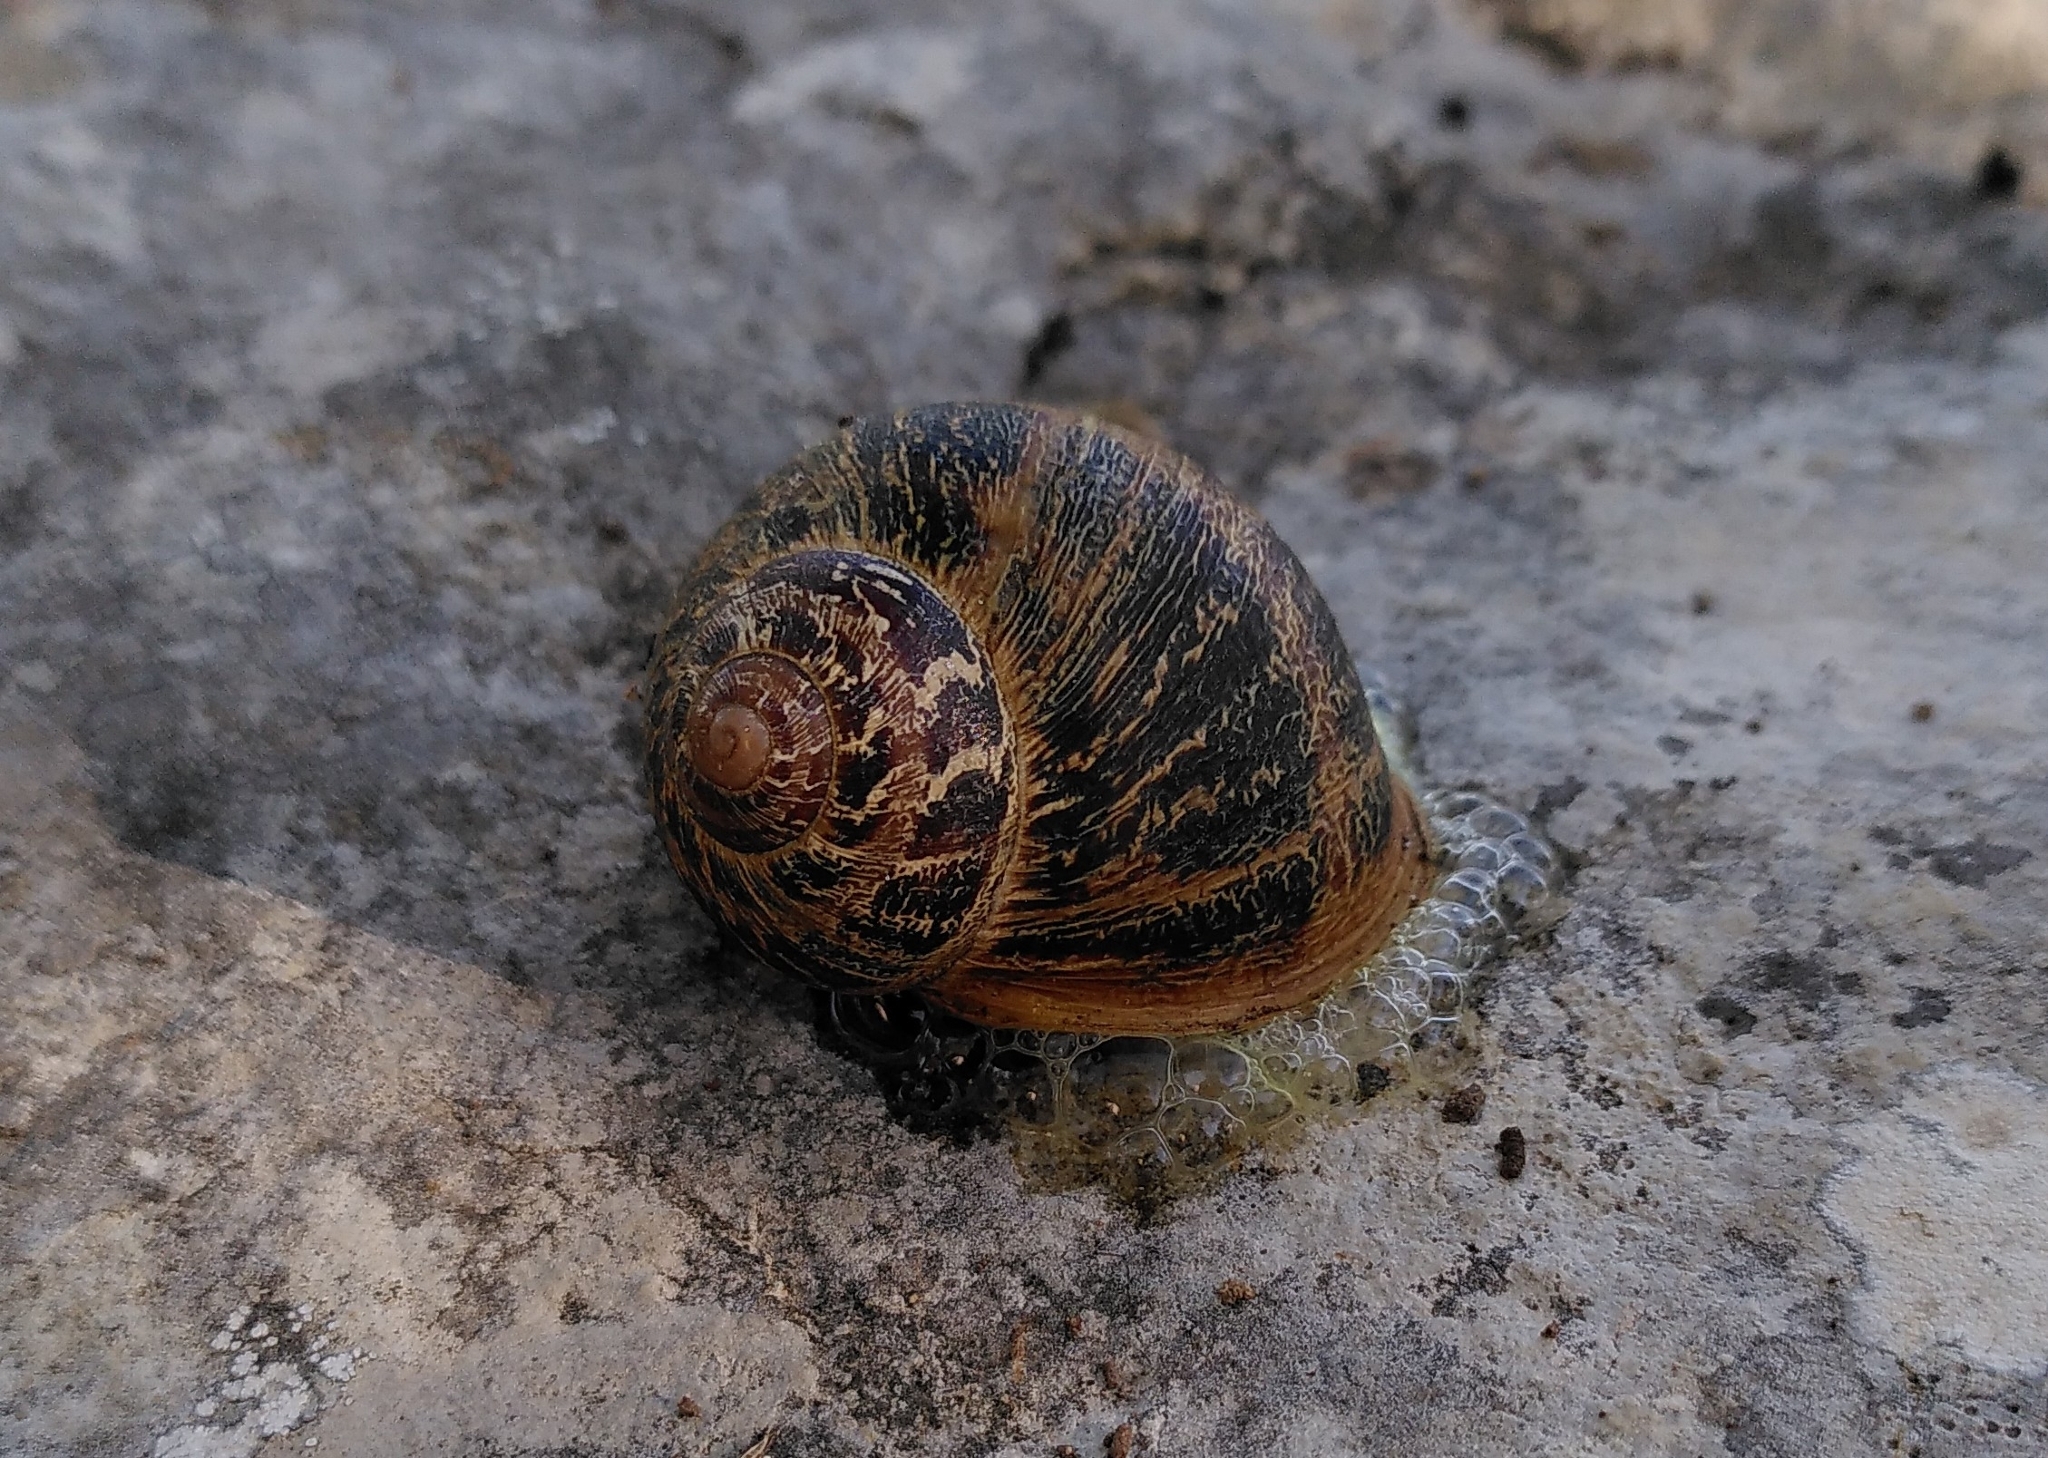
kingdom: Animalia
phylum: Mollusca
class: Gastropoda
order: Stylommatophora
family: Helicidae
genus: Cornu
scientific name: Cornu aspersum
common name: Brown garden snail
